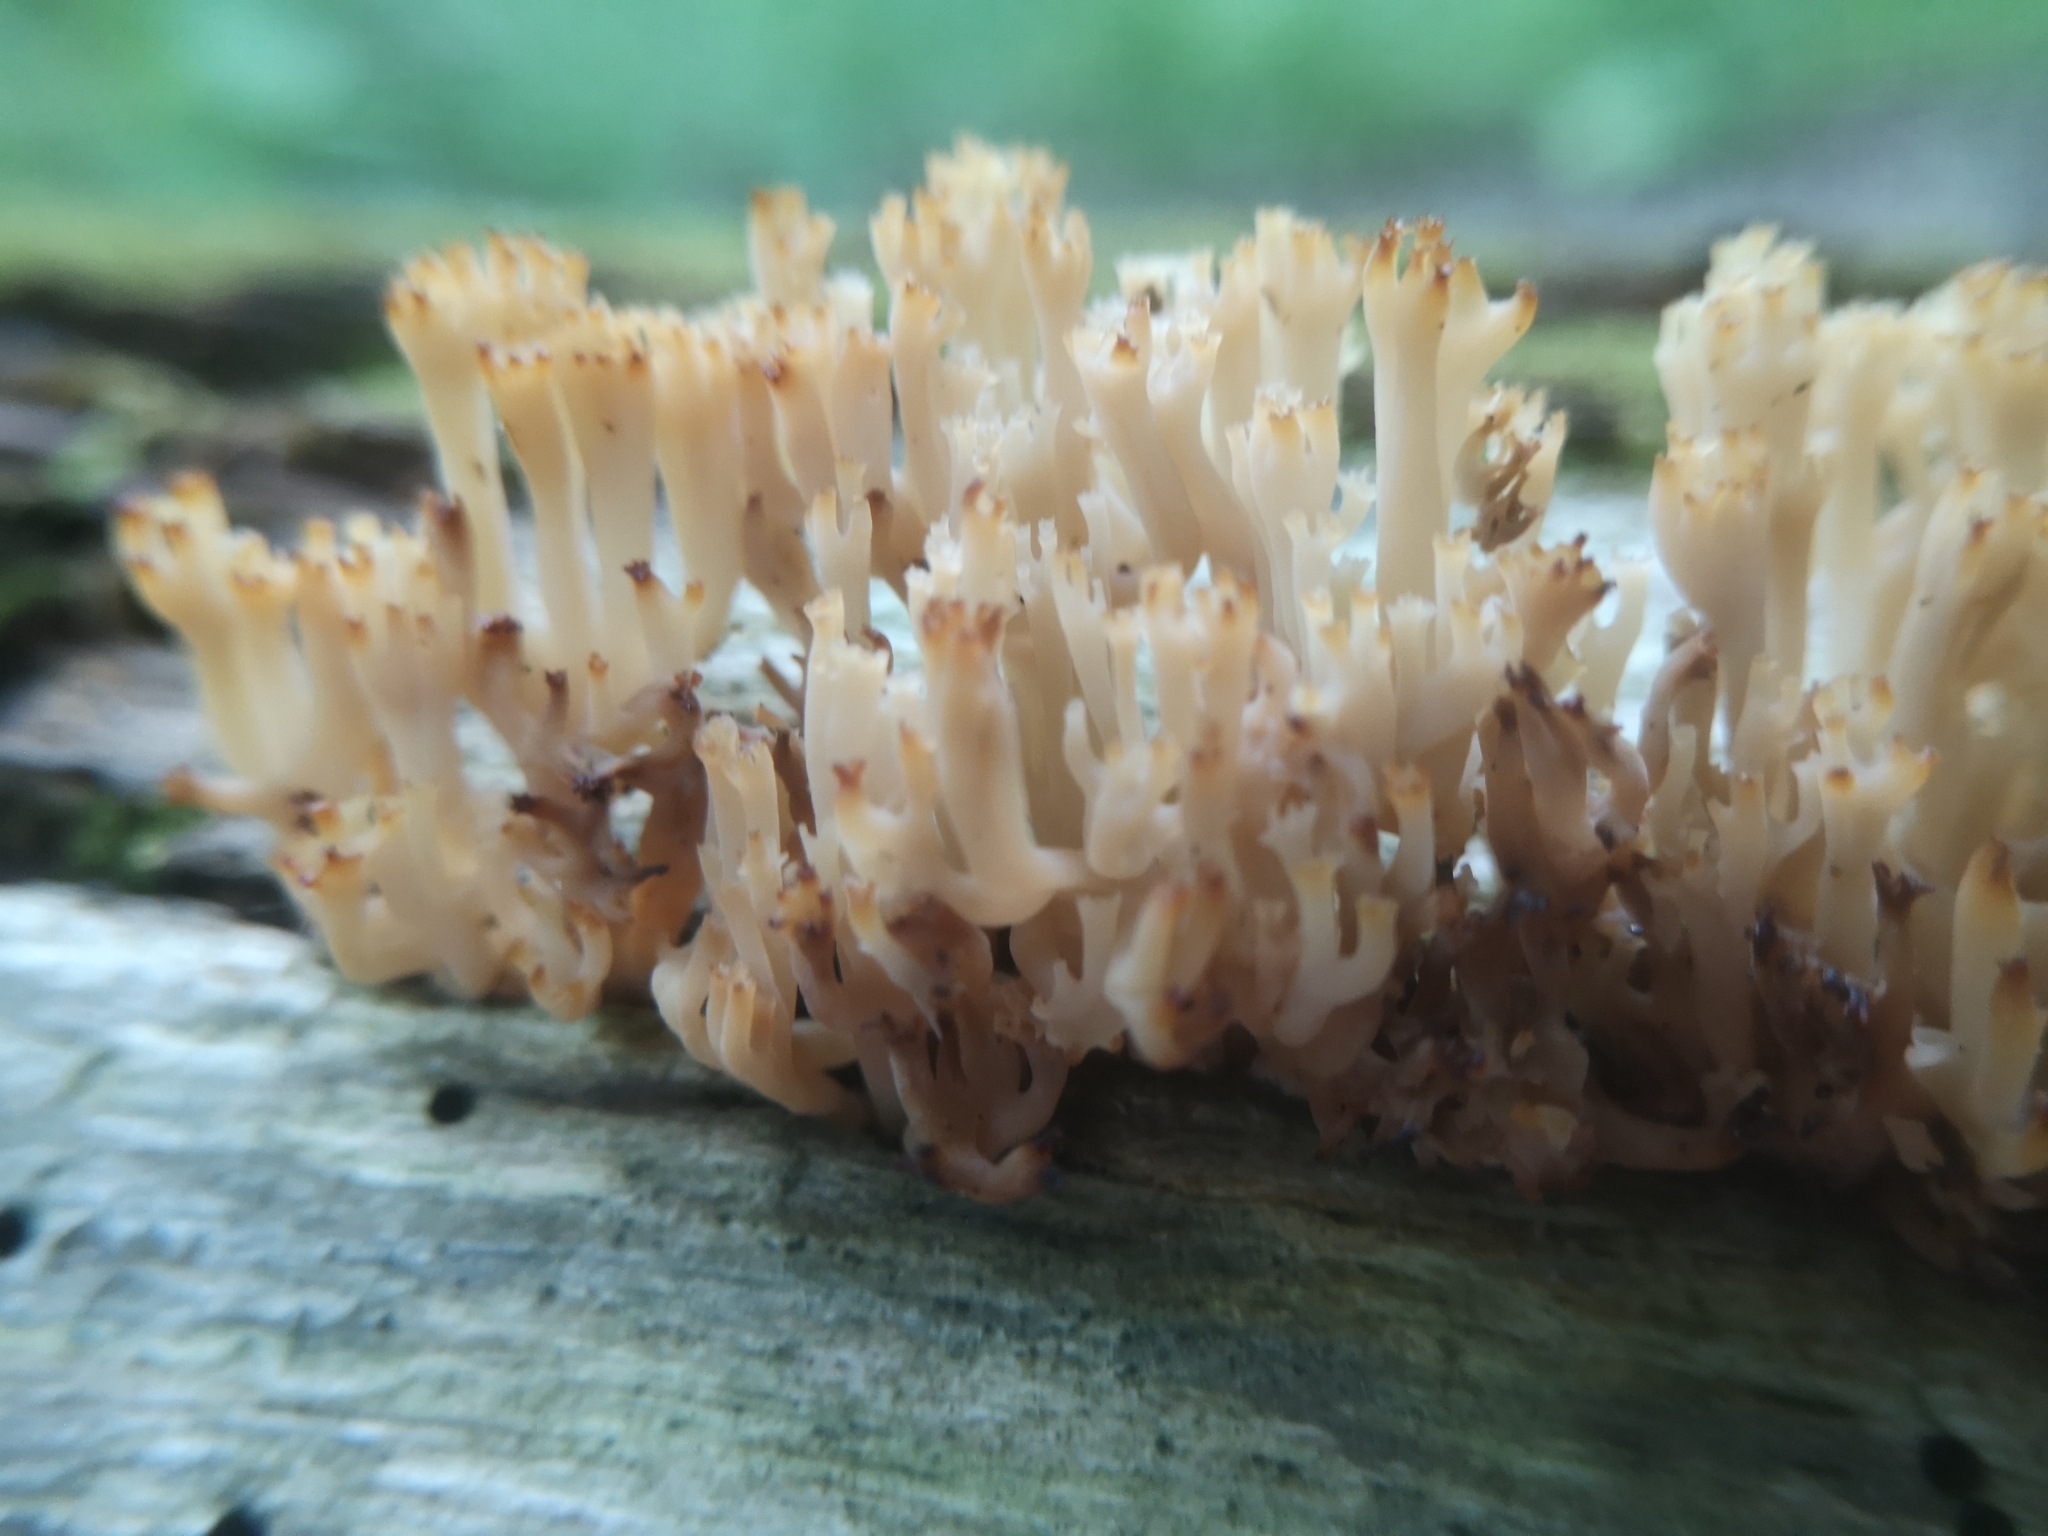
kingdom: Fungi
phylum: Basidiomycota
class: Agaricomycetes
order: Russulales
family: Auriscalpiaceae
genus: Artomyces
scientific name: Artomyces pyxidatus
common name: Crown-tipped coral fungus
